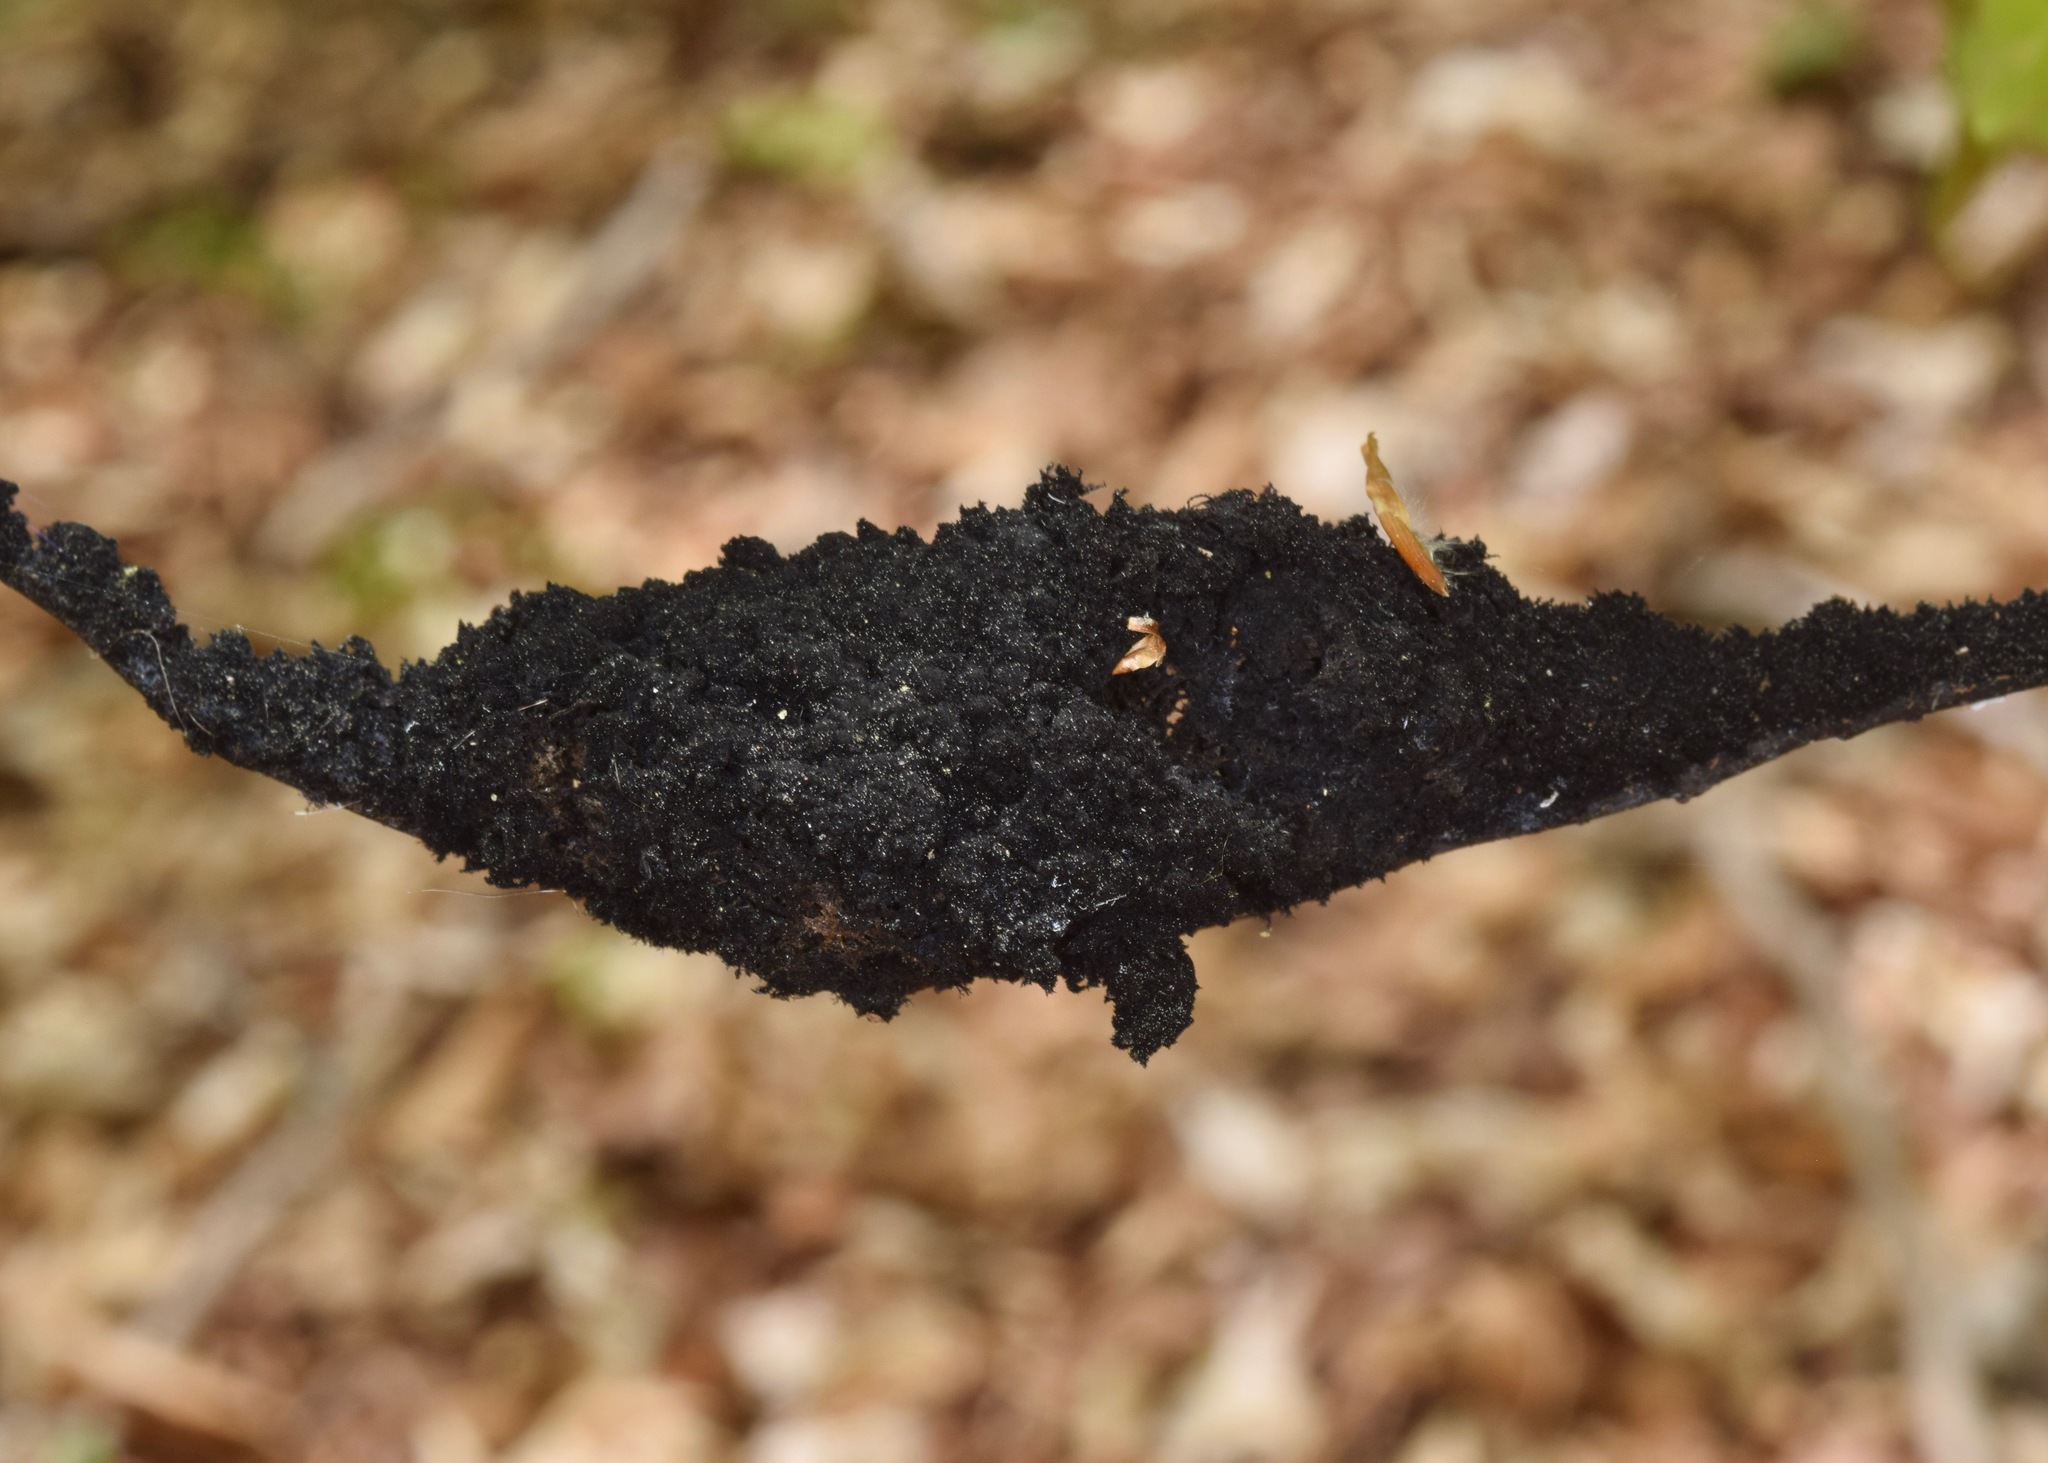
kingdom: Fungi
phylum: Ascomycota
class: Dothideomycetes
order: Capnodiales
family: Capnodiaceae
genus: Scorias
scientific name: Scorias spongiosa
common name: Black sooty mold
